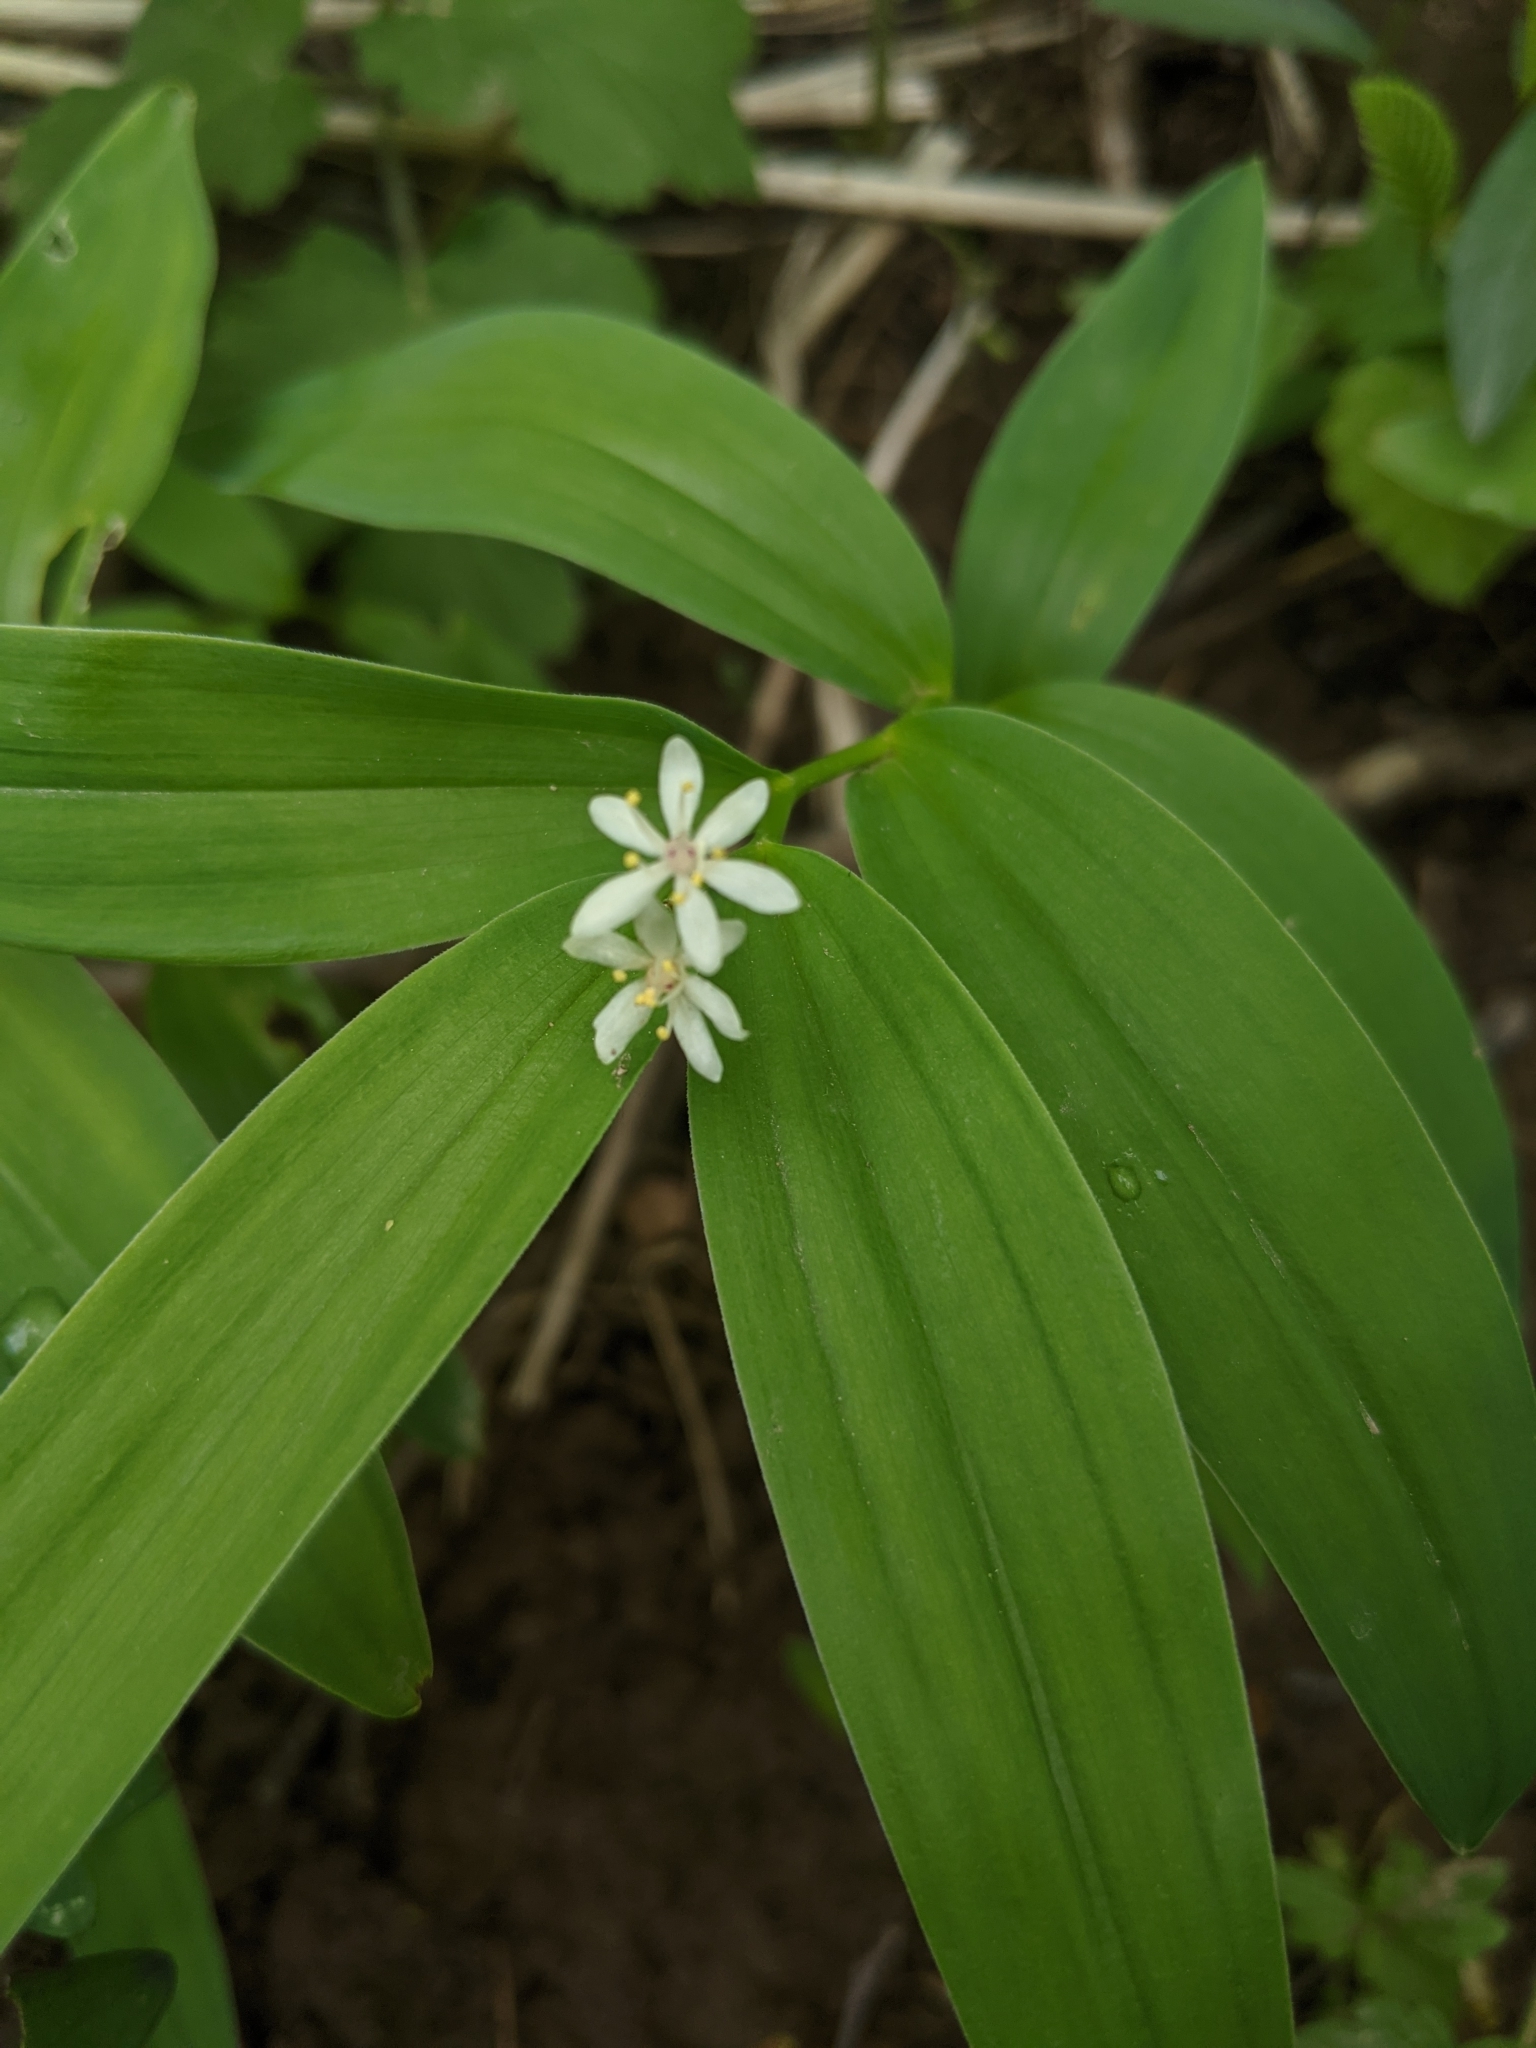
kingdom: Plantae
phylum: Tracheophyta
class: Liliopsida
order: Asparagales
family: Asparagaceae
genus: Maianthemum
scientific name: Maianthemum stellatum
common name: Little false solomon's seal
